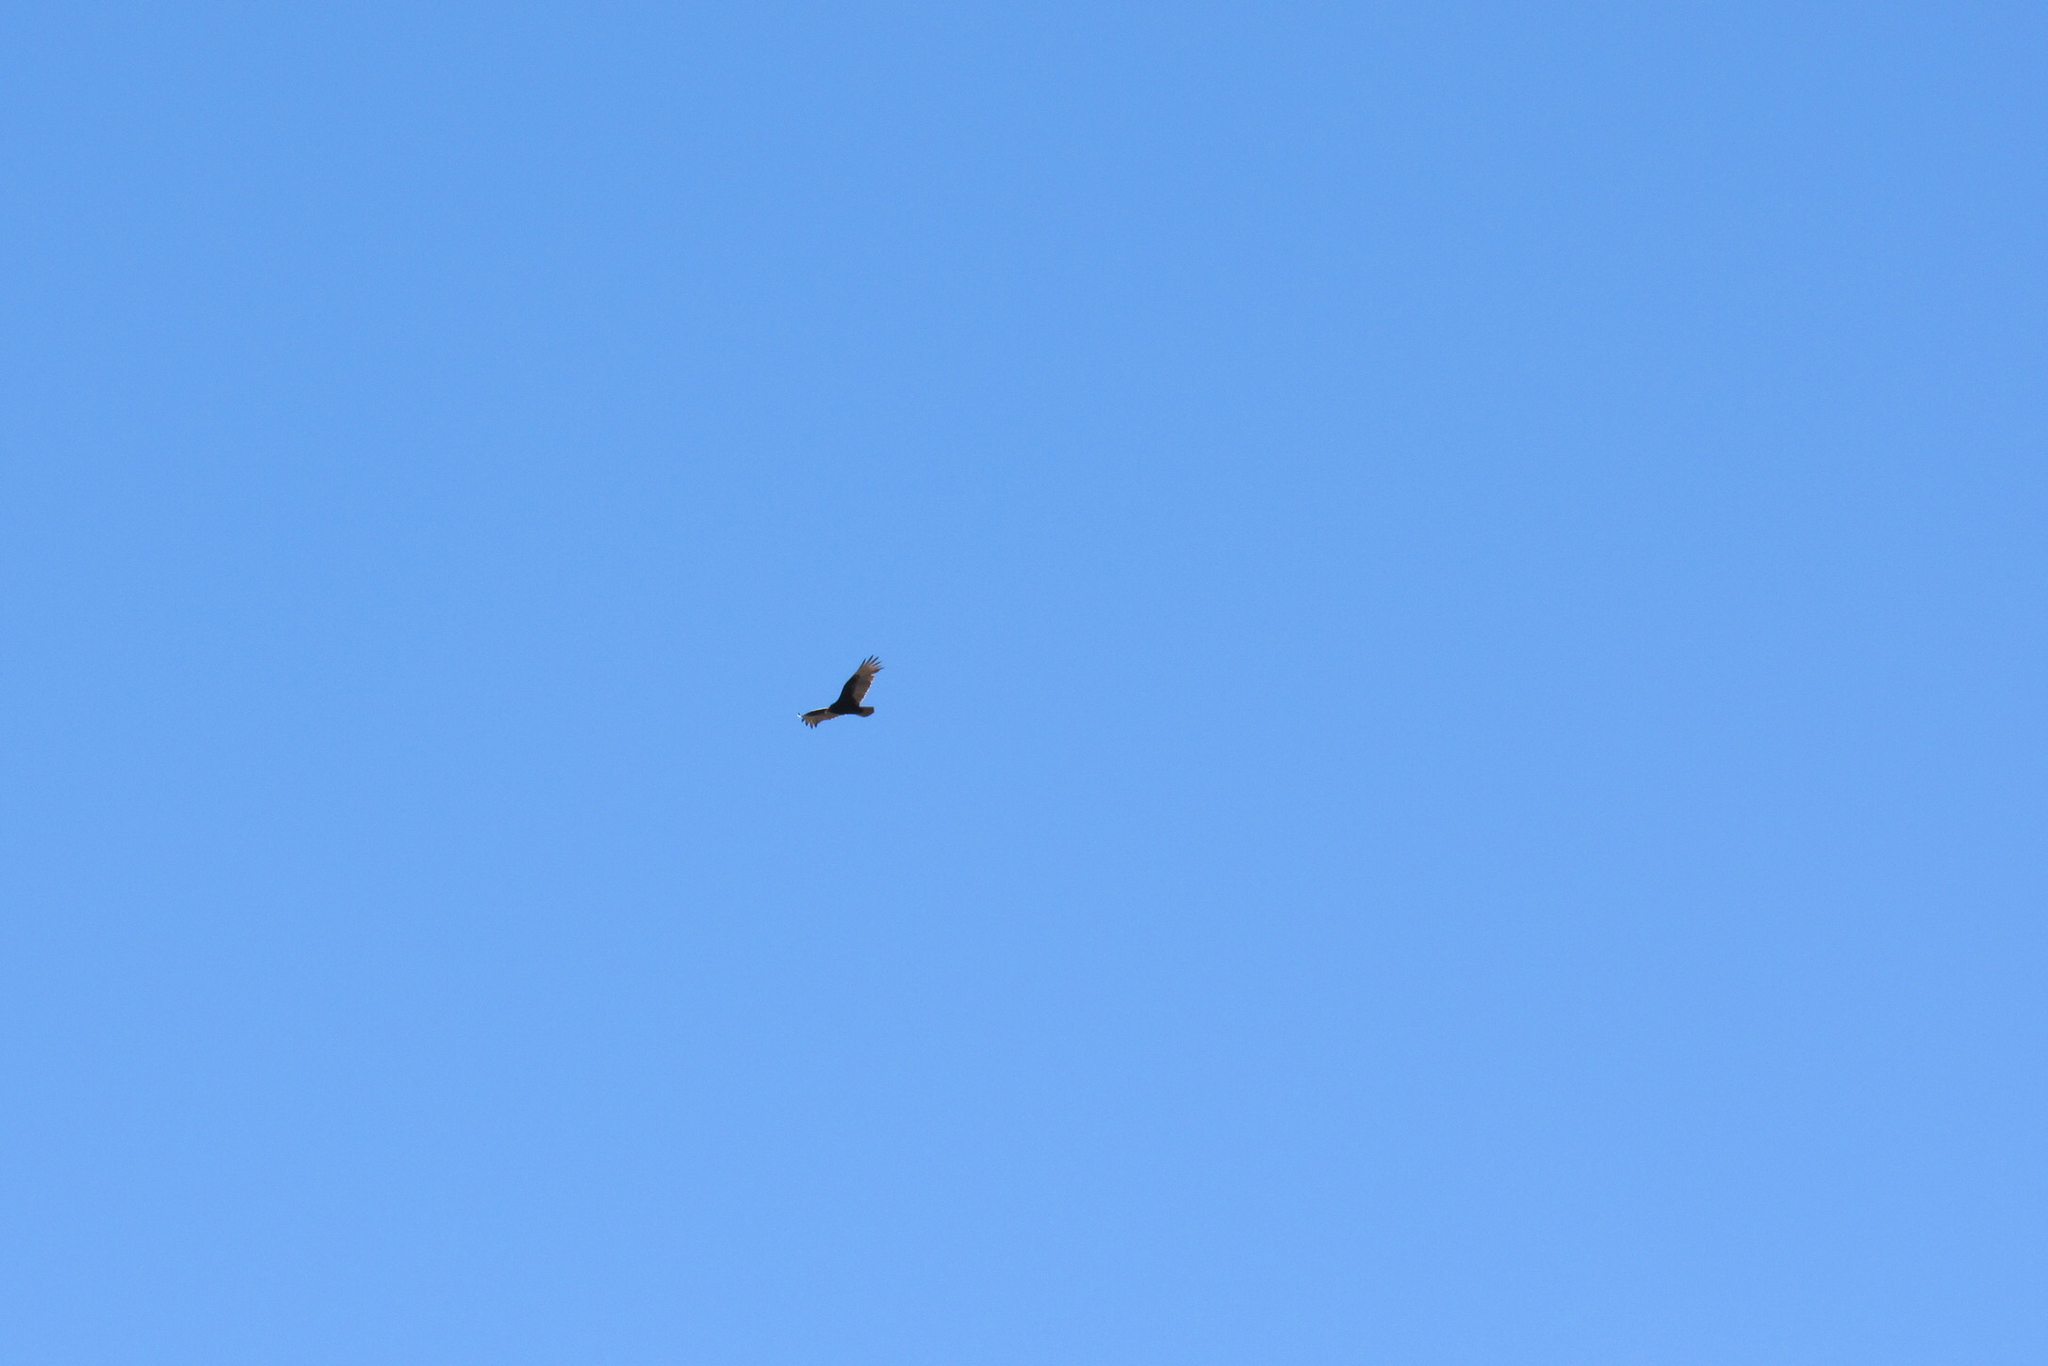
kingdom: Animalia
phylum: Chordata
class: Aves
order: Accipitriformes
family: Cathartidae
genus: Cathartes
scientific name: Cathartes aura
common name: Turkey vulture
